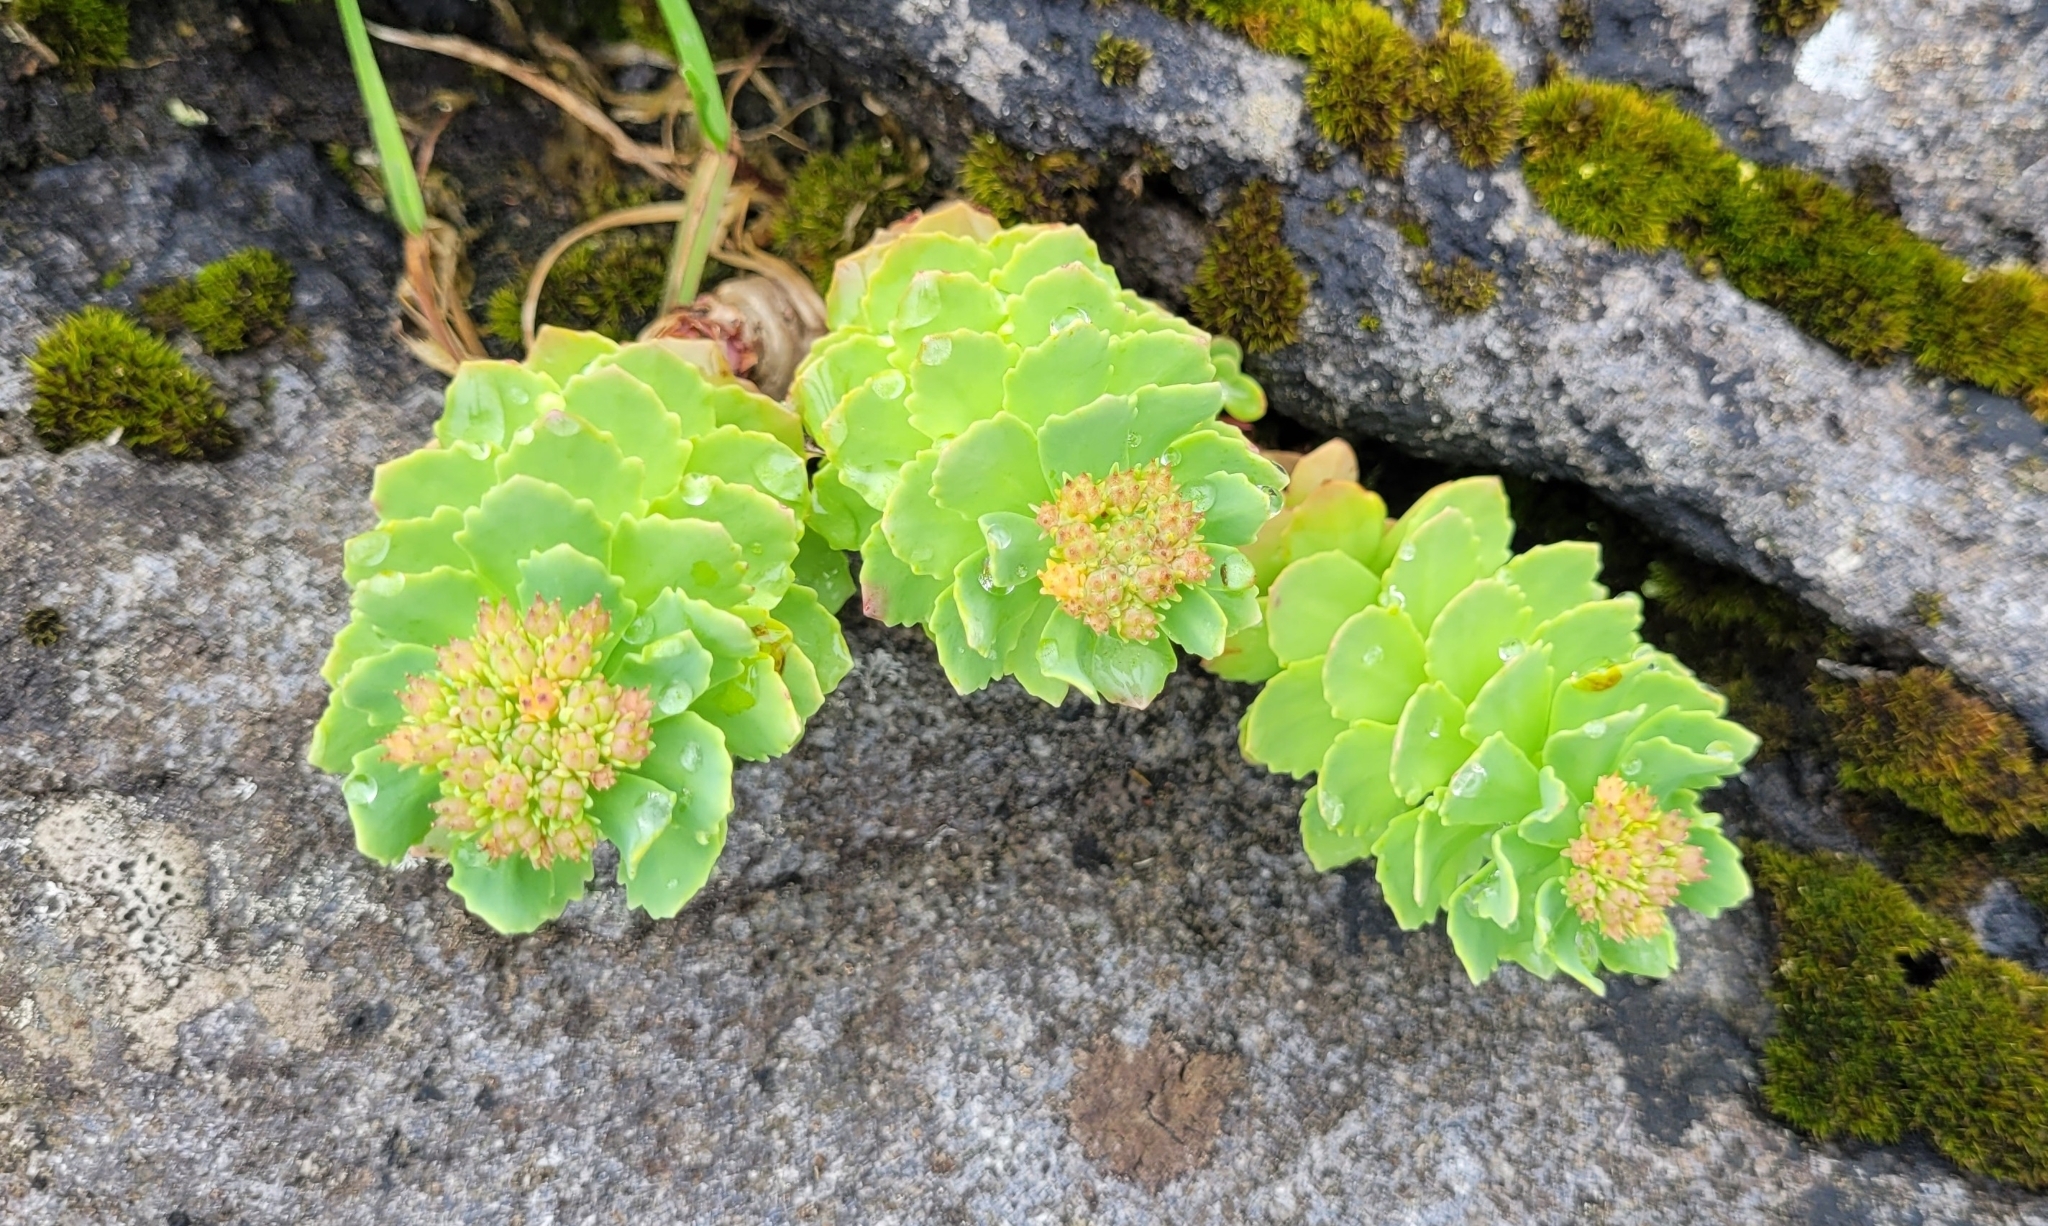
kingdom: Plantae
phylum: Tracheophyta
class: Magnoliopsida
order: Saxifragales
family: Crassulaceae
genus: Rhodiola
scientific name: Rhodiola rosea
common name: Roseroot
